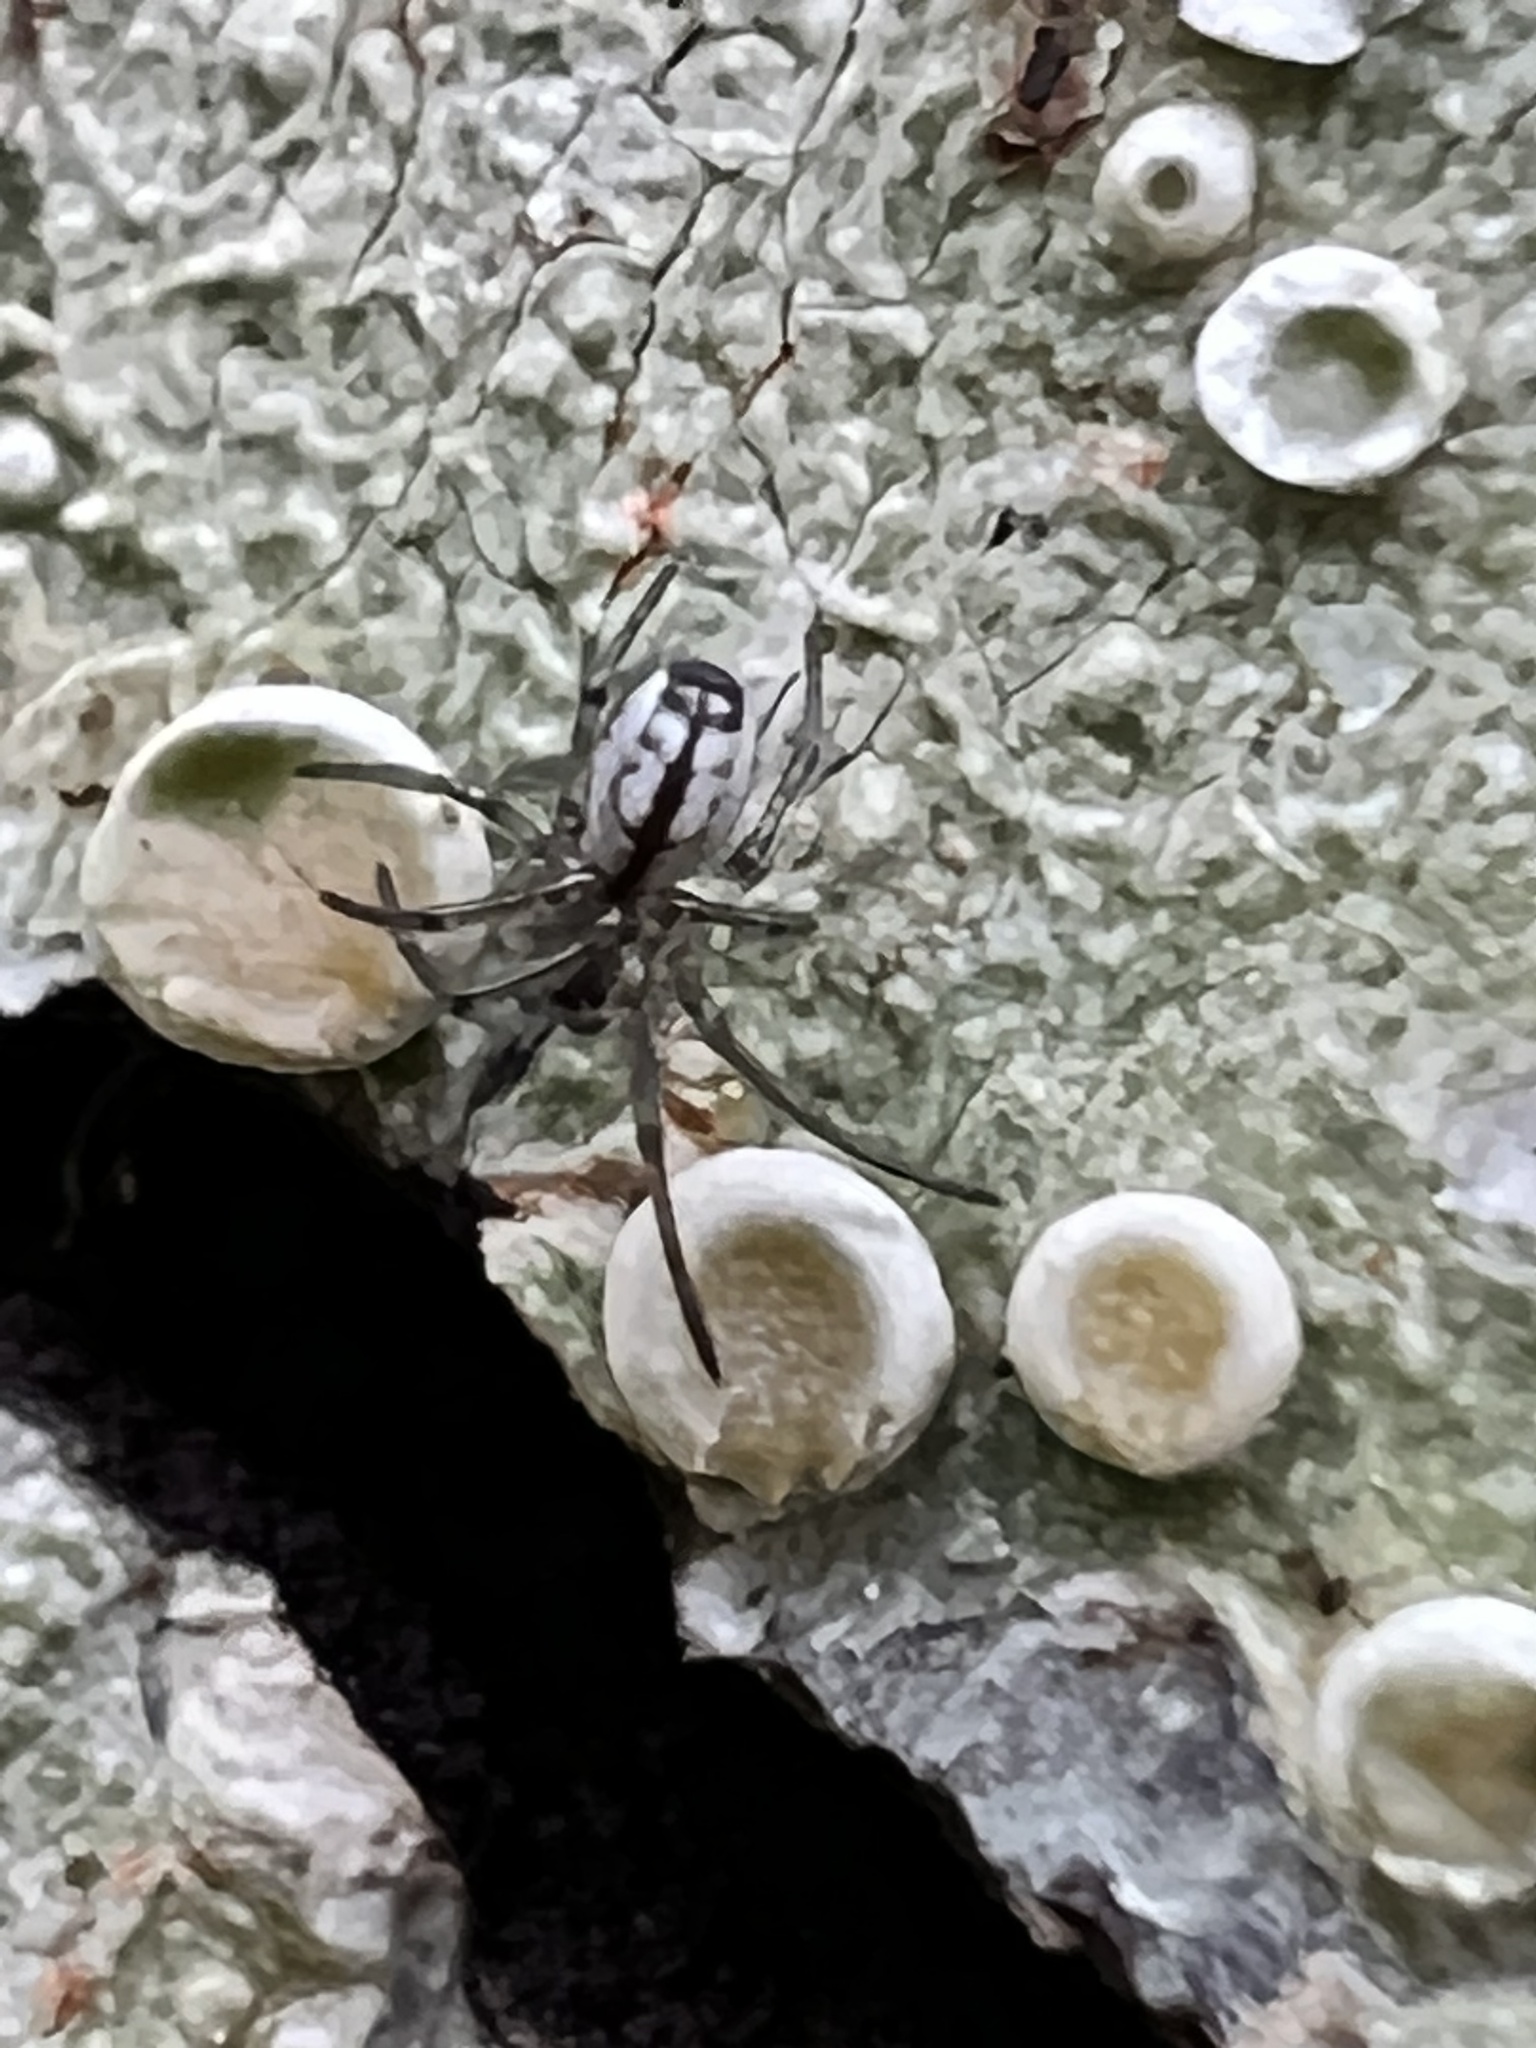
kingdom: Animalia
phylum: Arthropoda
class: Arachnida
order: Araneae
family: Linyphiidae
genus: Neriene
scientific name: Neriene litigiosa
